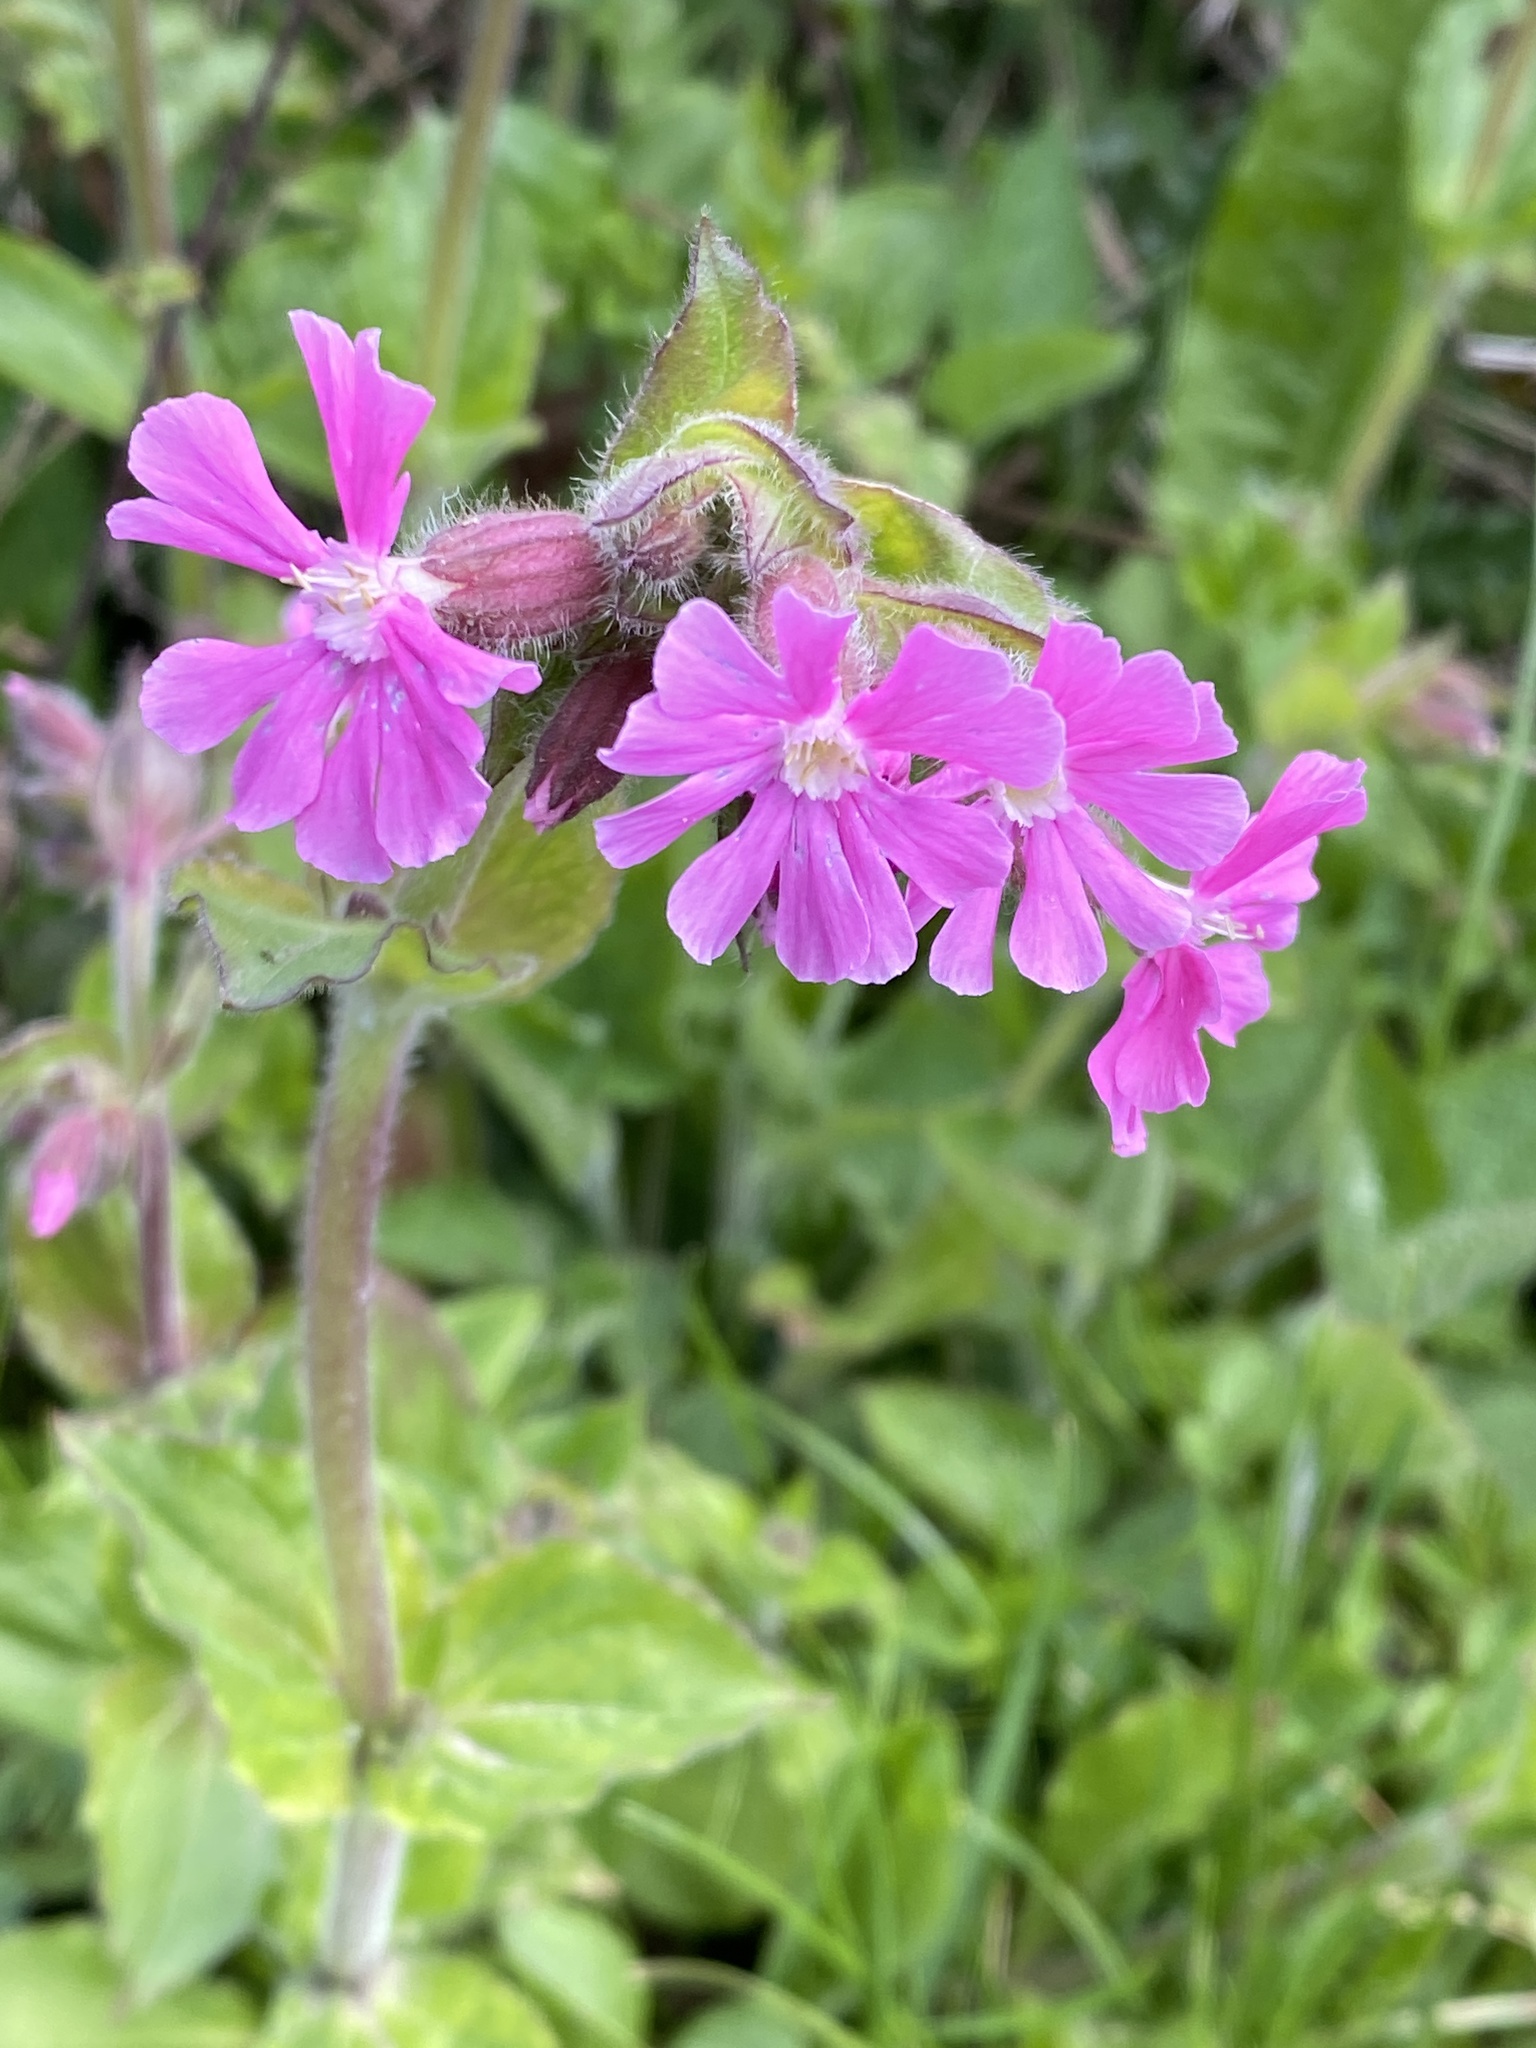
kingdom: Plantae
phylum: Tracheophyta
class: Magnoliopsida
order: Caryophyllales
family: Caryophyllaceae
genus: Silene
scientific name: Silene dioica
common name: Red campion
